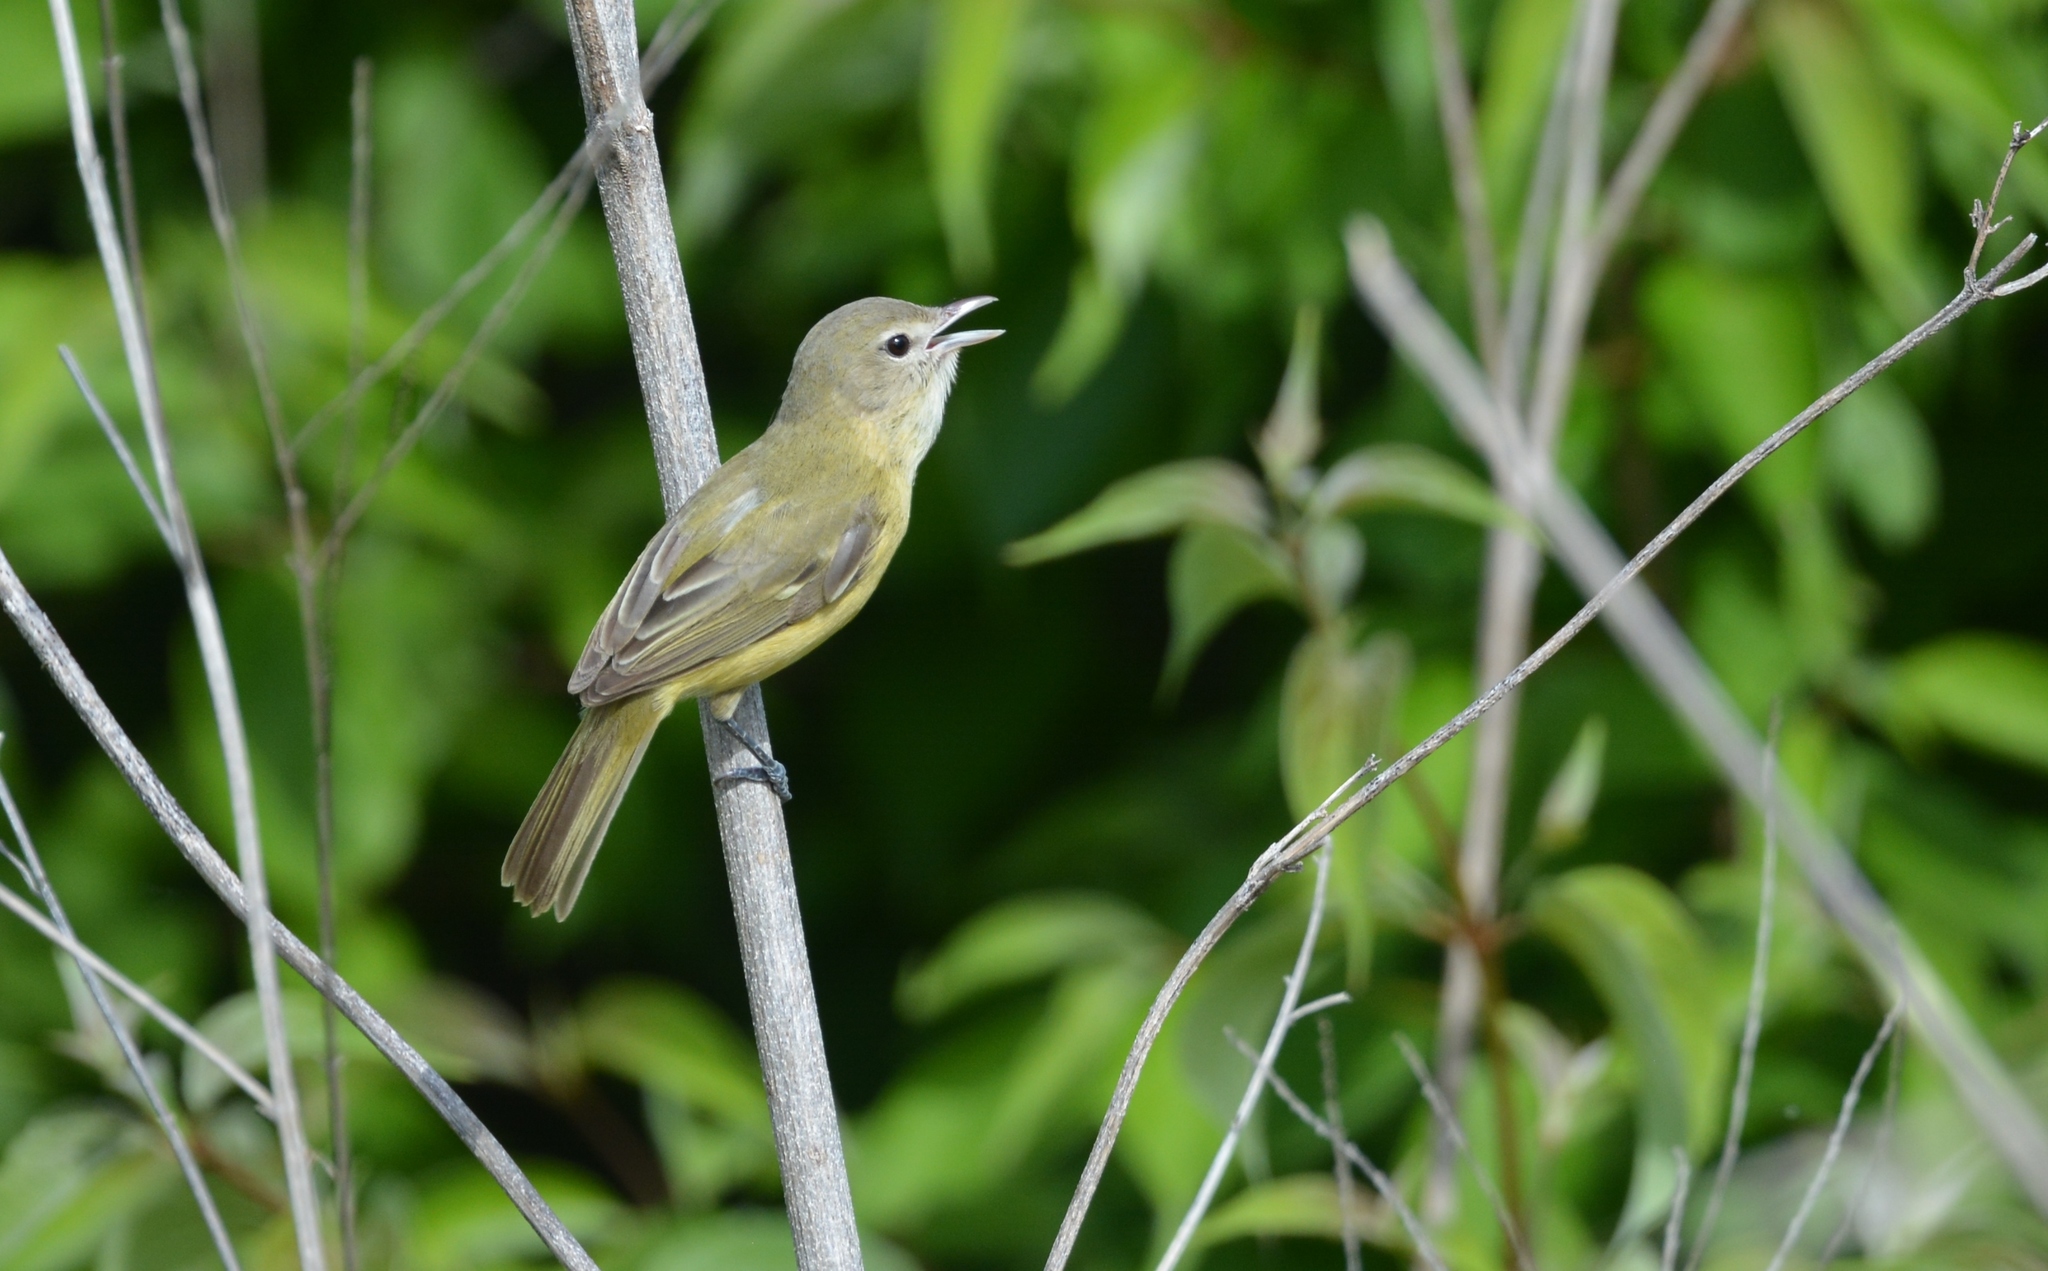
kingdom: Animalia
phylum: Chordata
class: Aves
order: Passeriformes
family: Vireonidae
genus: Vireo
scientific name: Vireo bellii
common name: Bell's vireo
